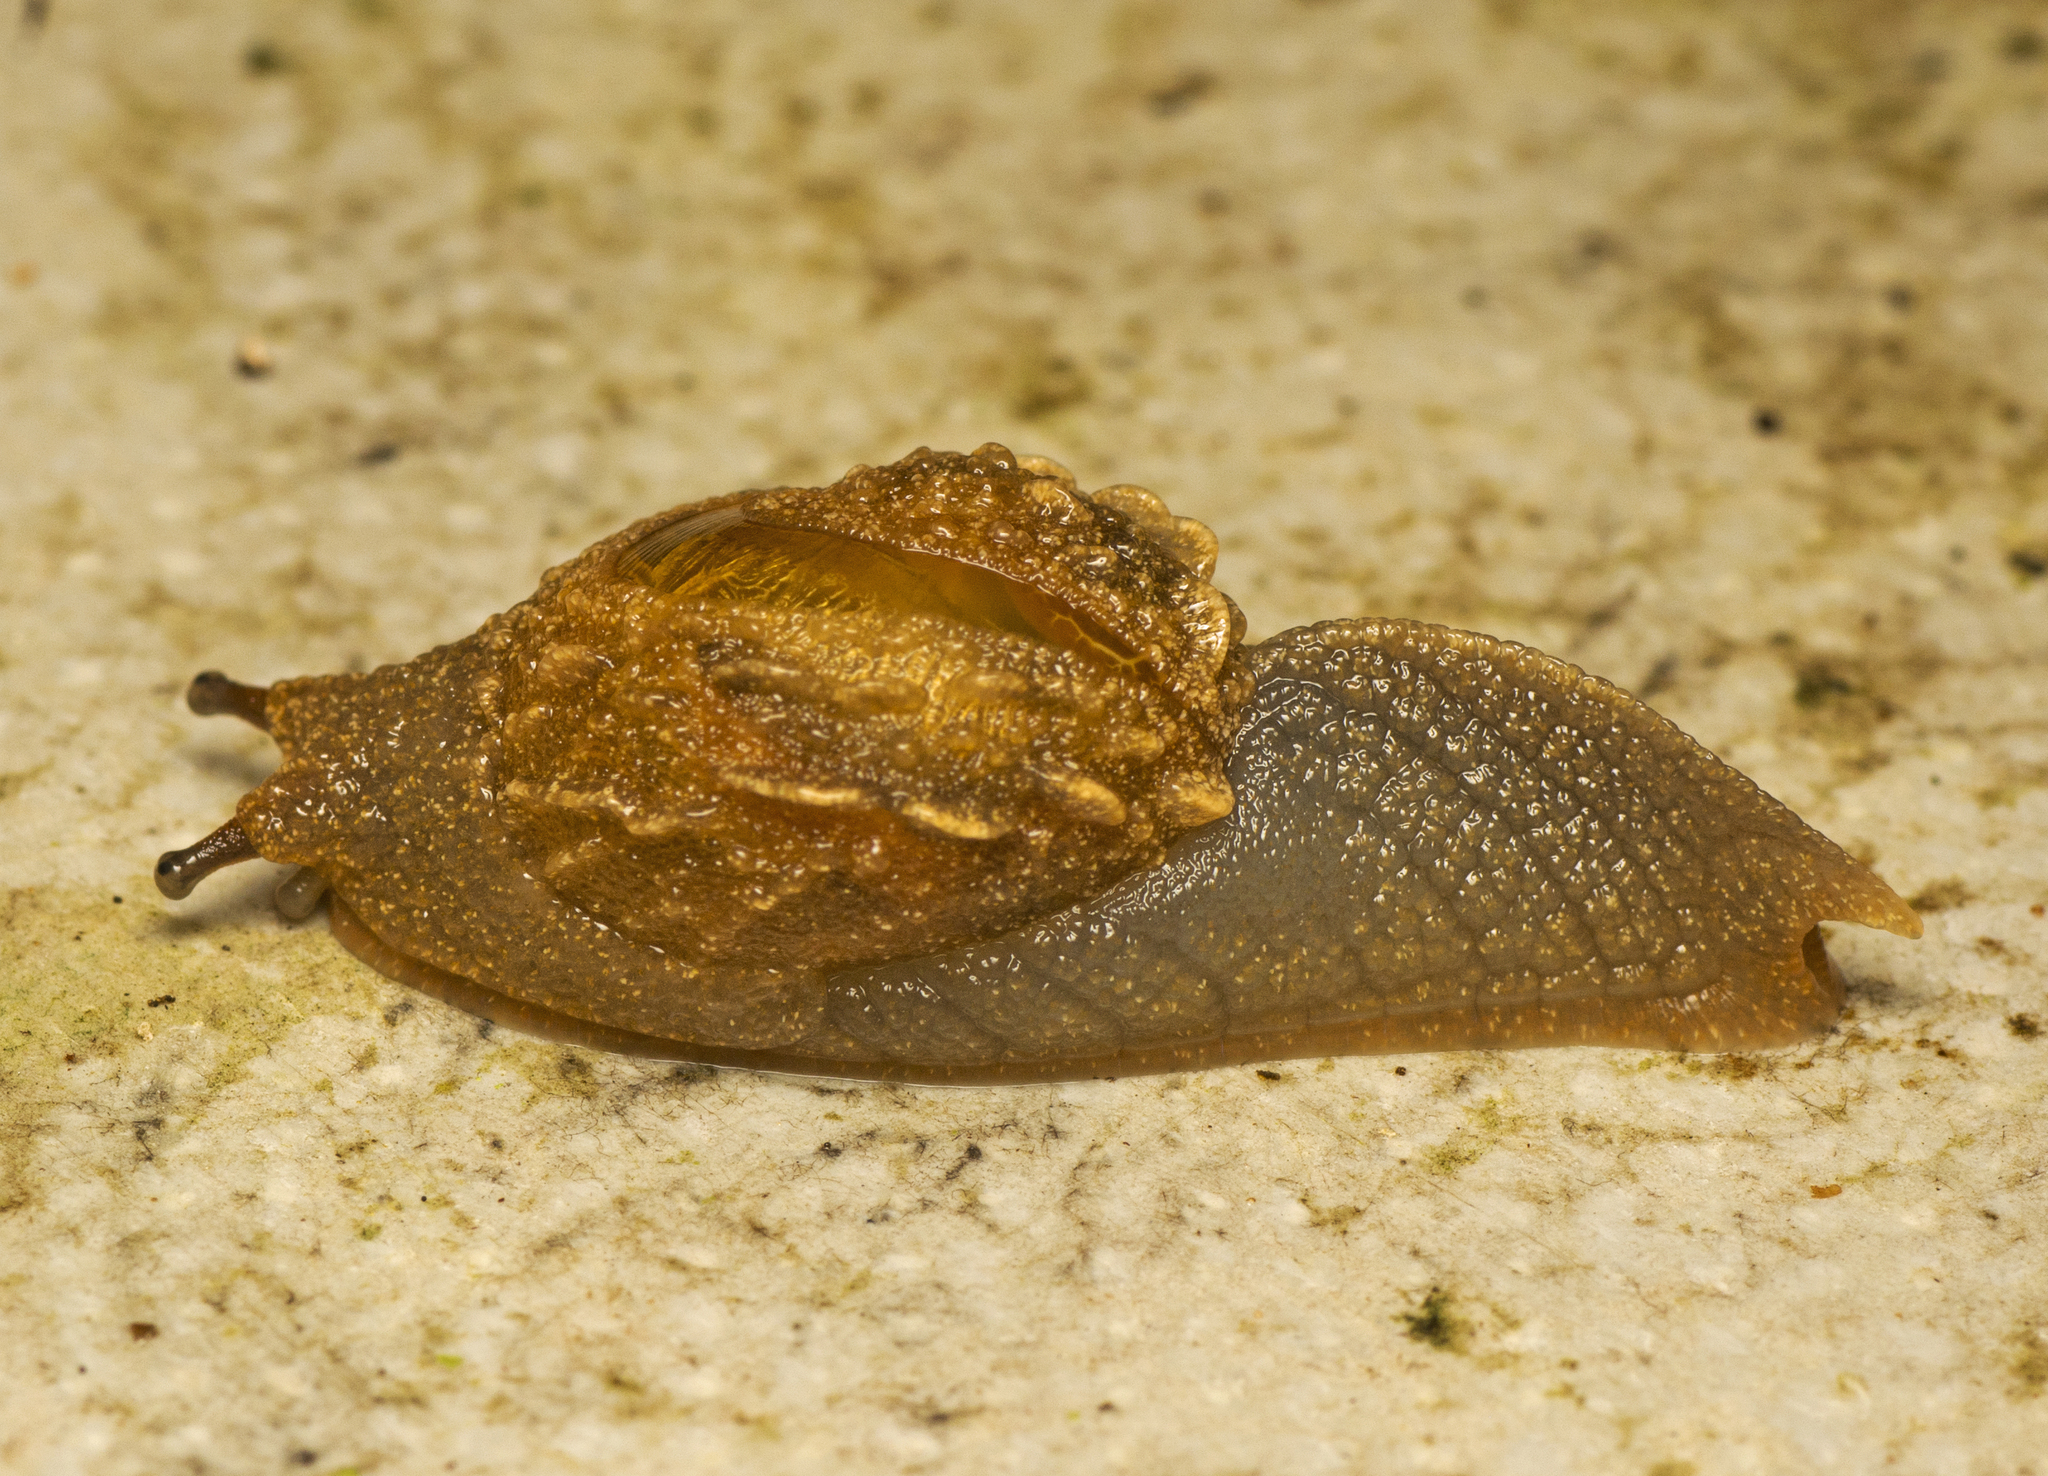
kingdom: Animalia
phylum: Mollusca
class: Gastropoda
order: Stylommatophora
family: Helicarionidae
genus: Fastosarion
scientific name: Fastosarion brazieri
